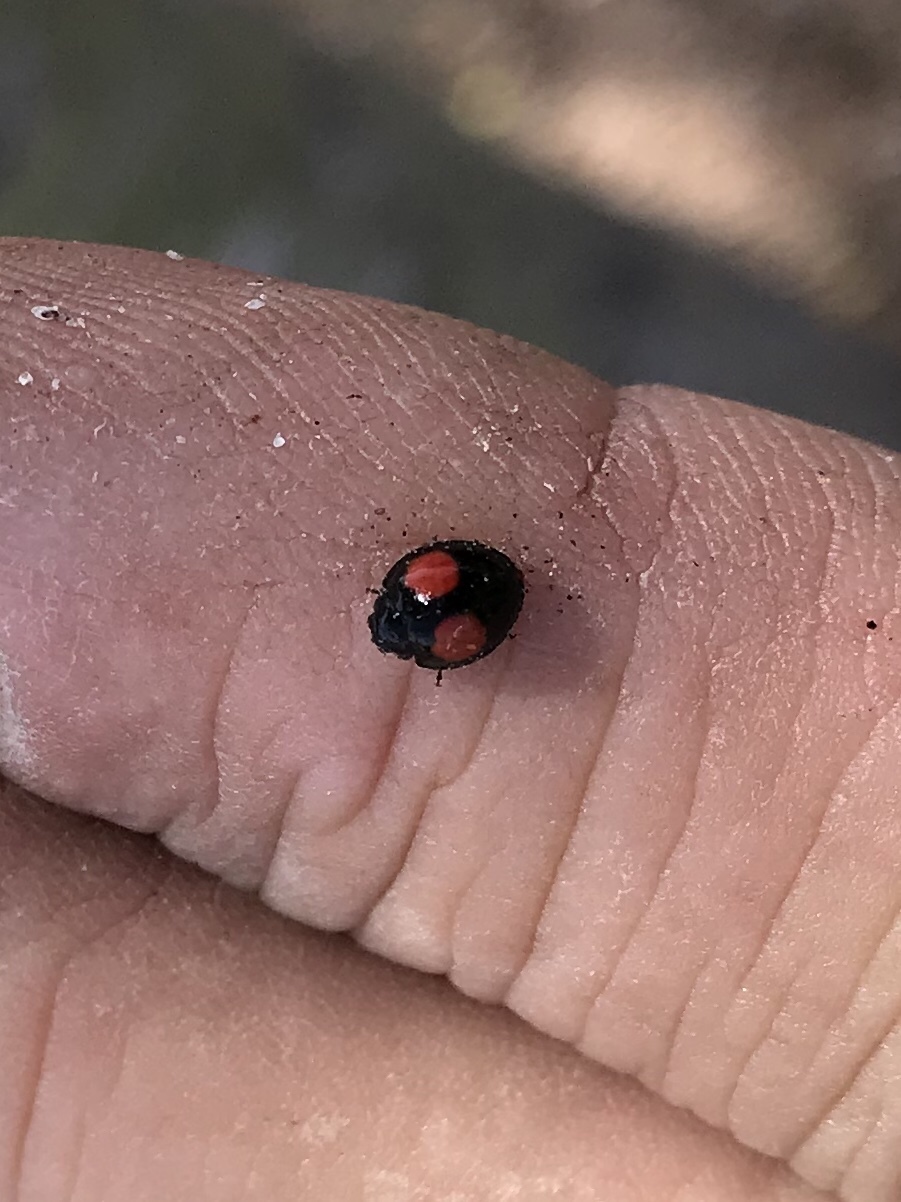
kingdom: Animalia
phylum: Arthropoda
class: Insecta
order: Coleoptera
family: Coccinellidae
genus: Chilocorus
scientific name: Chilocorus cacti
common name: Cactus lady beetle
